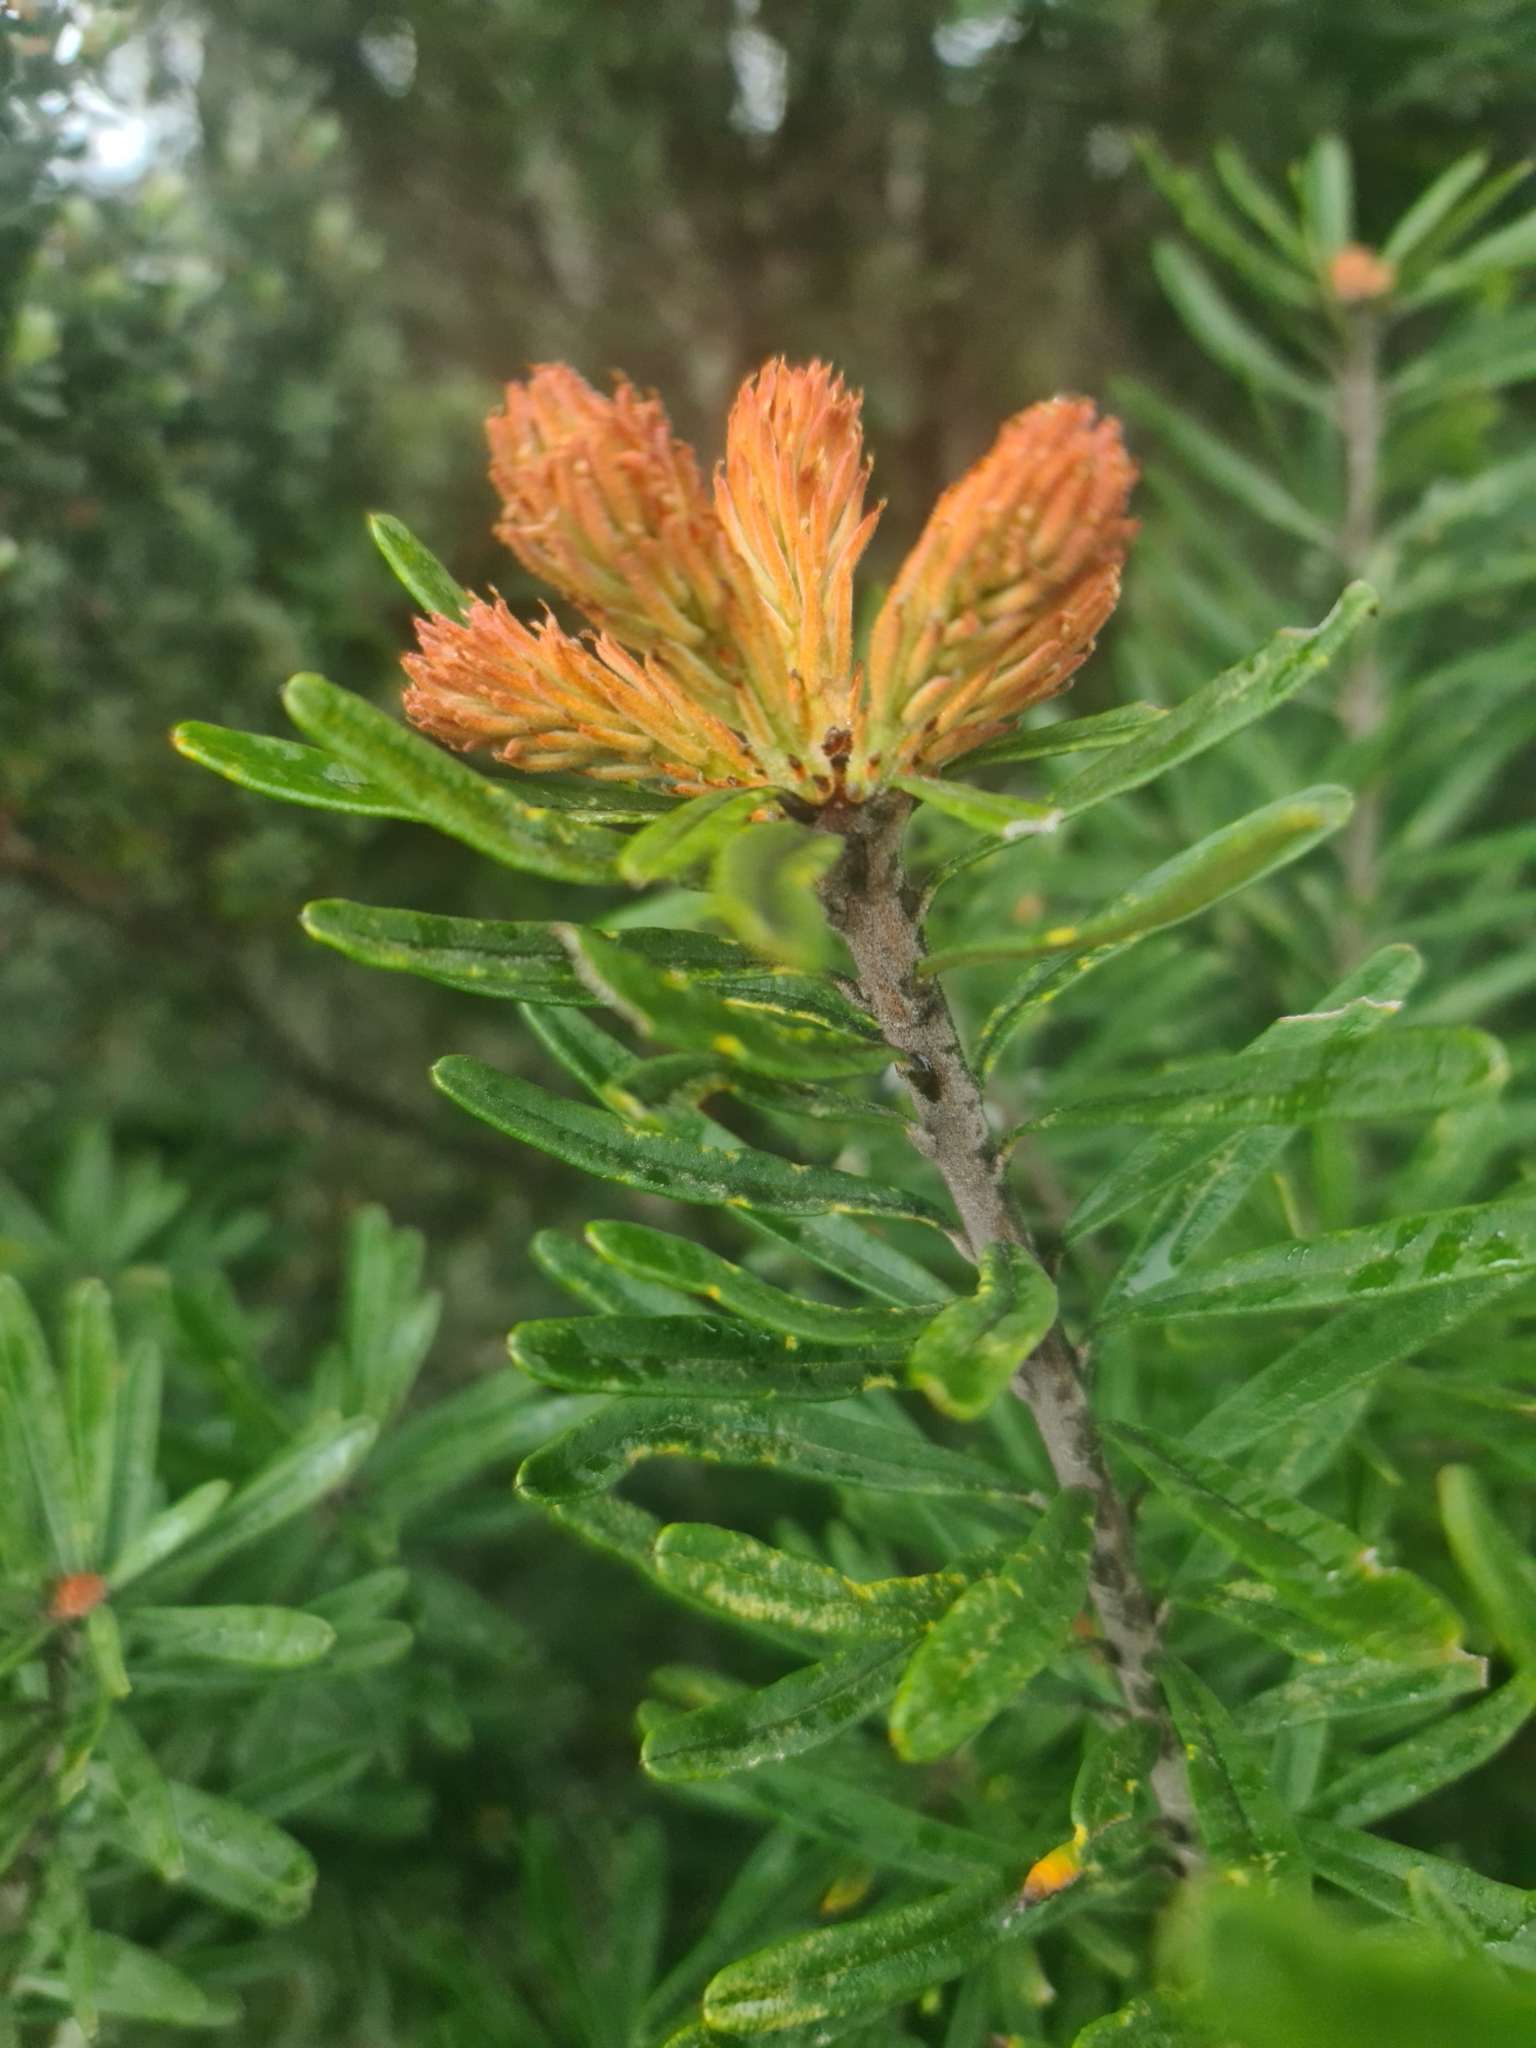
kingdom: Plantae
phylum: Tracheophyta
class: Magnoliopsida
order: Proteales
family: Proteaceae
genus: Banksia
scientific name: Banksia marginata
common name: Silver banksia
